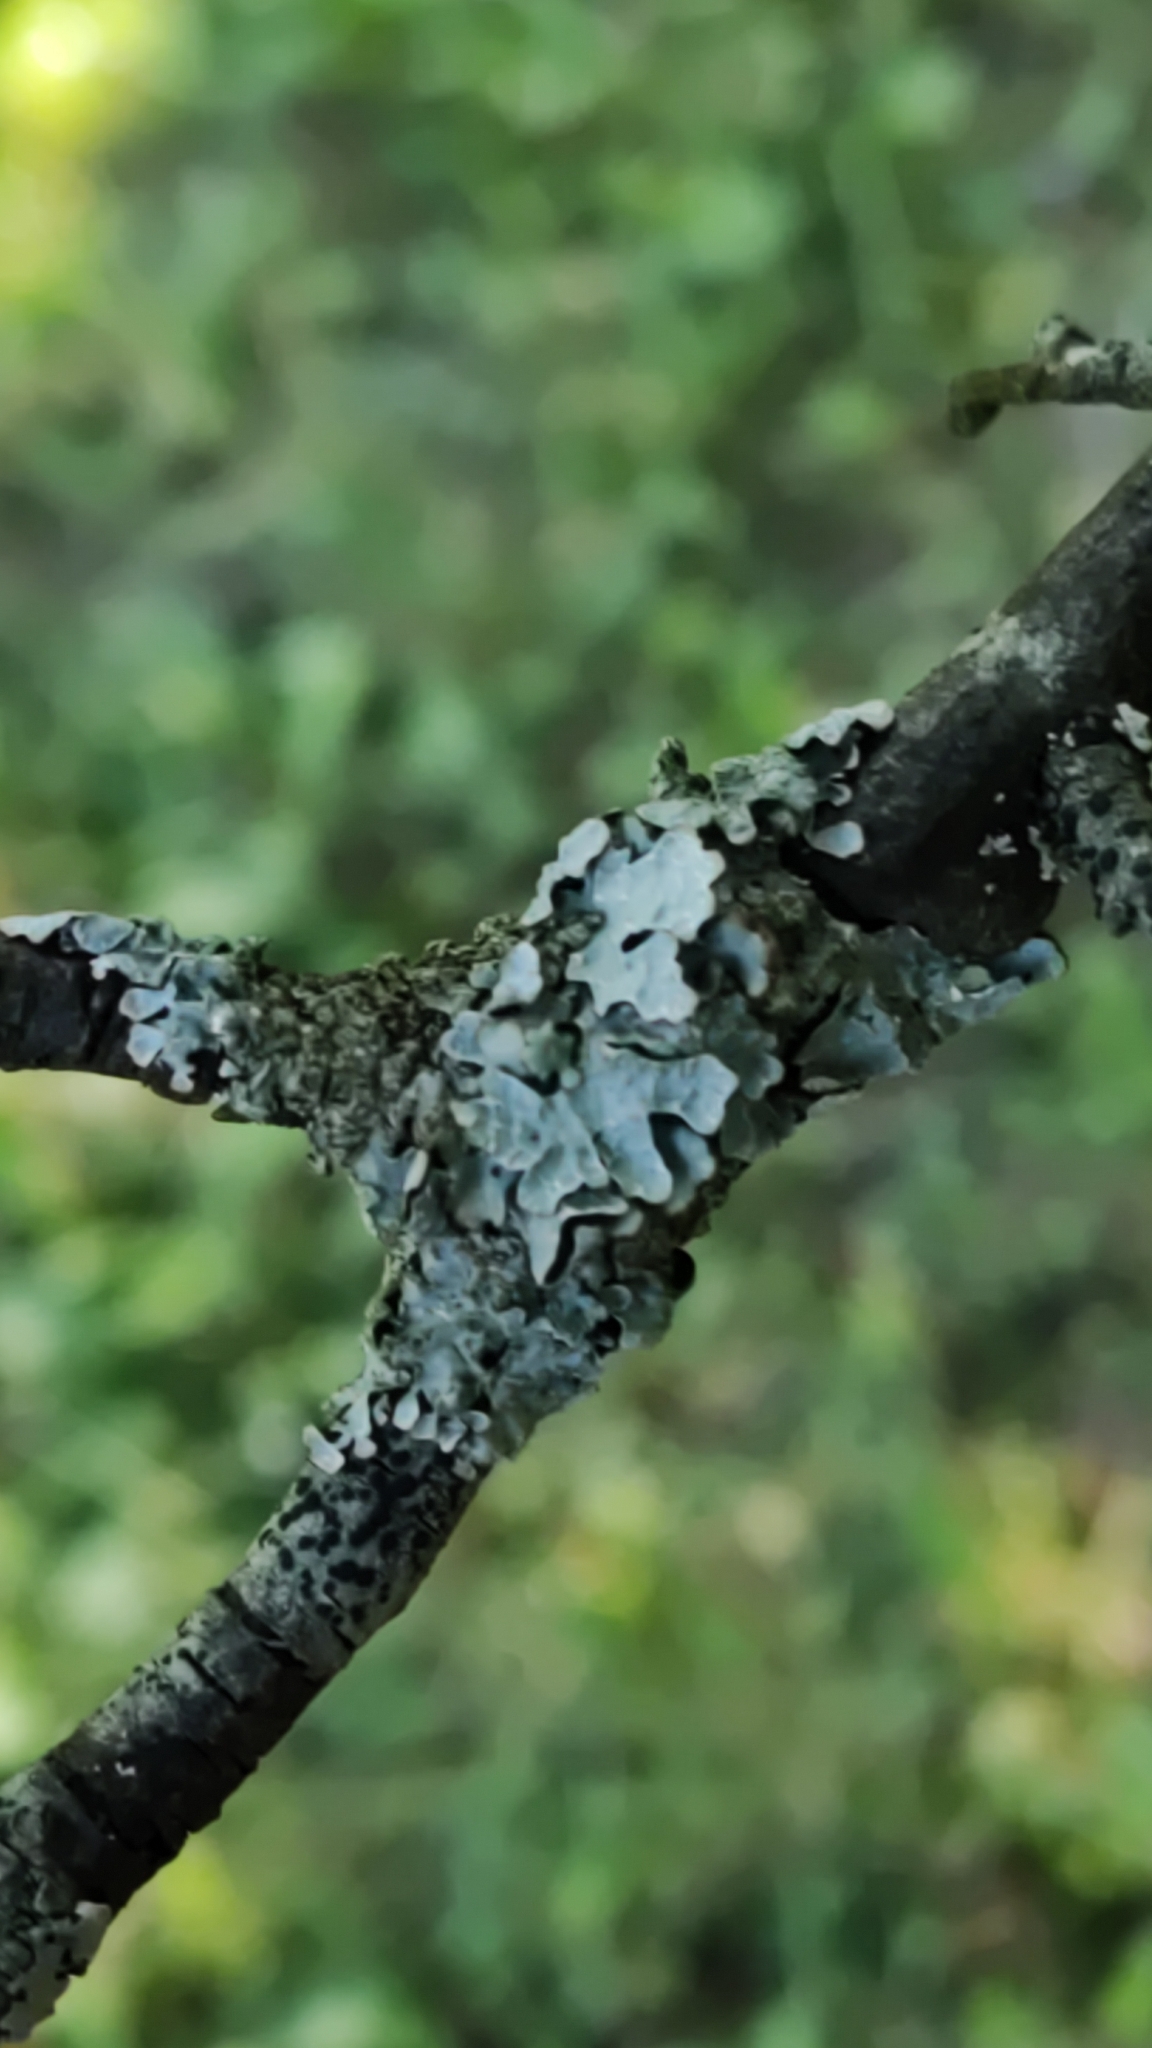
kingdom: Fungi
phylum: Ascomycota
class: Lecanoromycetes
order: Lecanorales
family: Parmeliaceae
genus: Parmelia
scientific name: Parmelia sulcata
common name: Netted shield lichen
